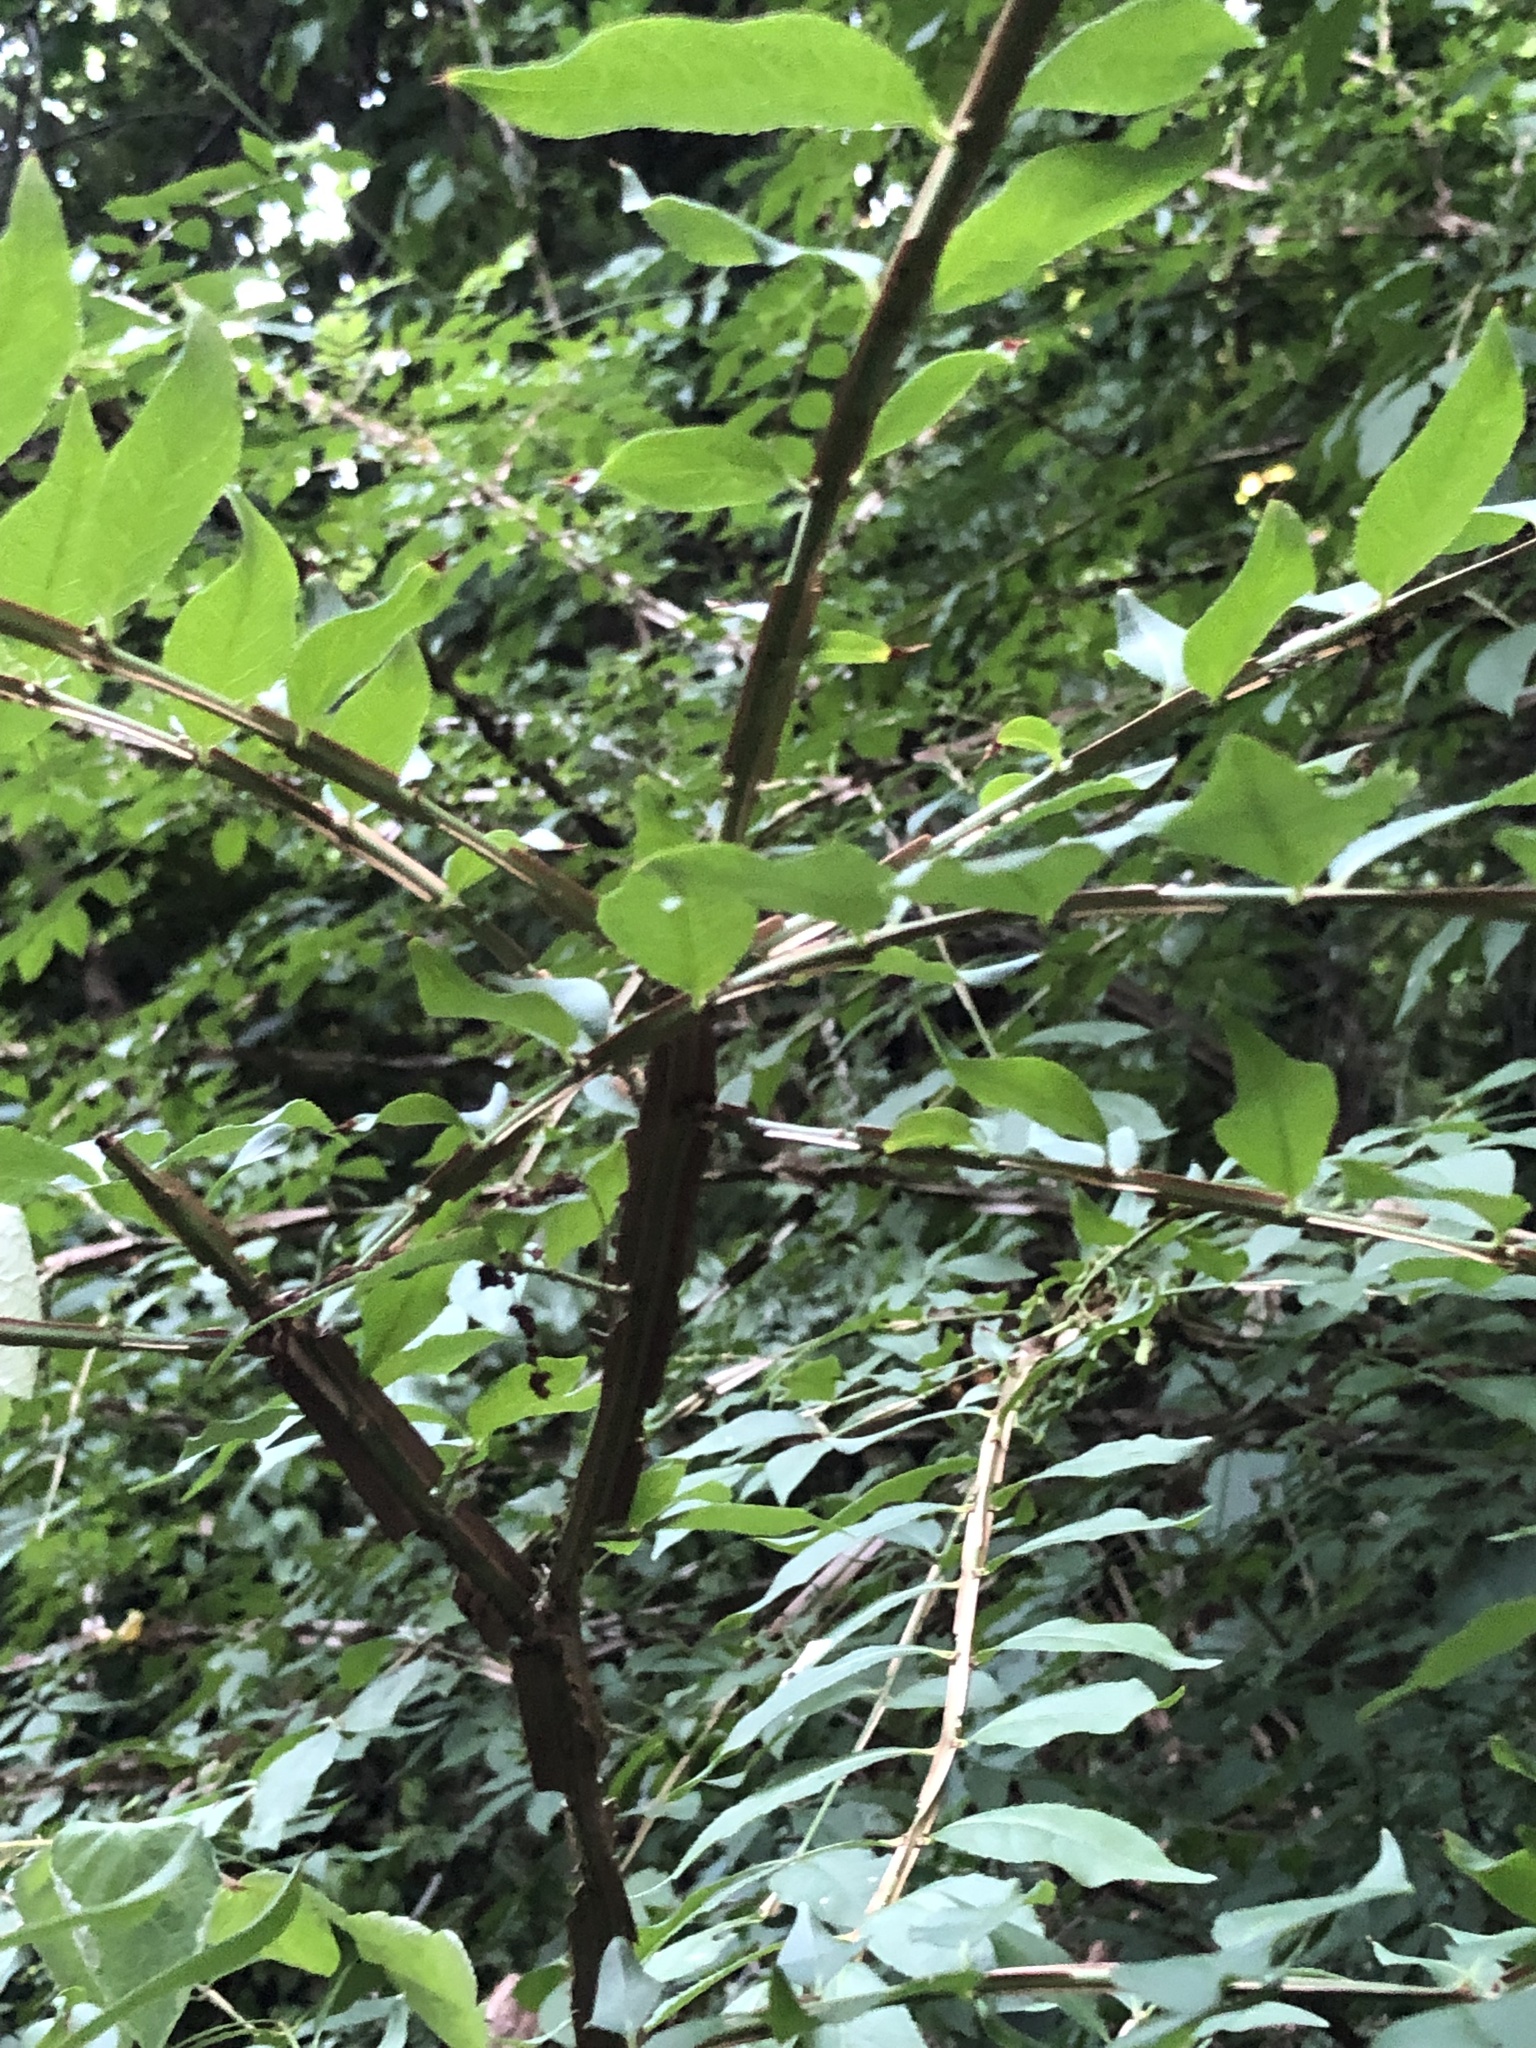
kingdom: Plantae
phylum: Tracheophyta
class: Magnoliopsida
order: Celastrales
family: Celastraceae
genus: Euonymus
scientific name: Euonymus alatus
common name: Winged euonymus
